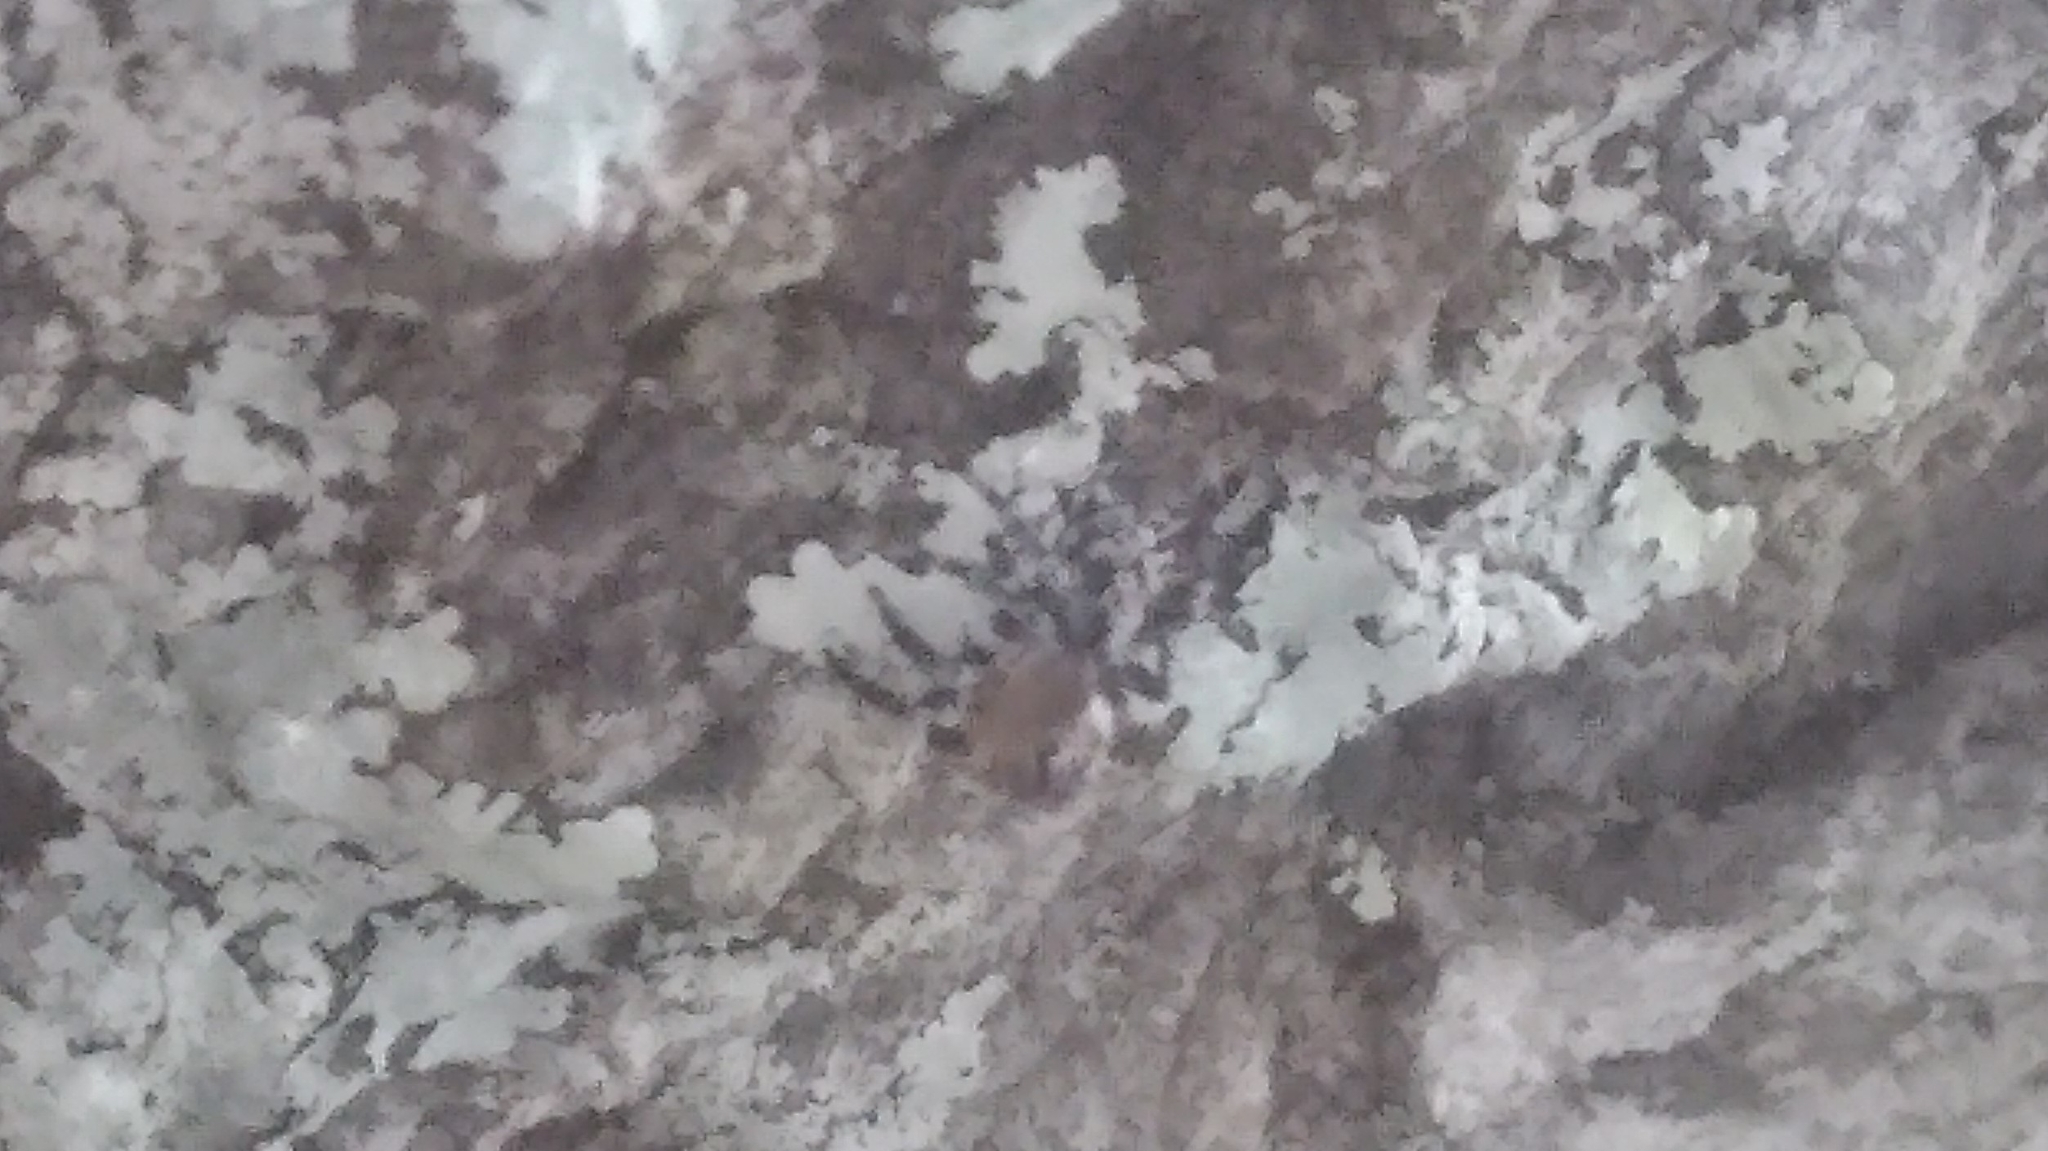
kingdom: Animalia
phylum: Arthropoda
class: Arachnida
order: Araneae
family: Salticidae
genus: Naphrys
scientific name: Naphrys pulex
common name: Flea jumping spider
